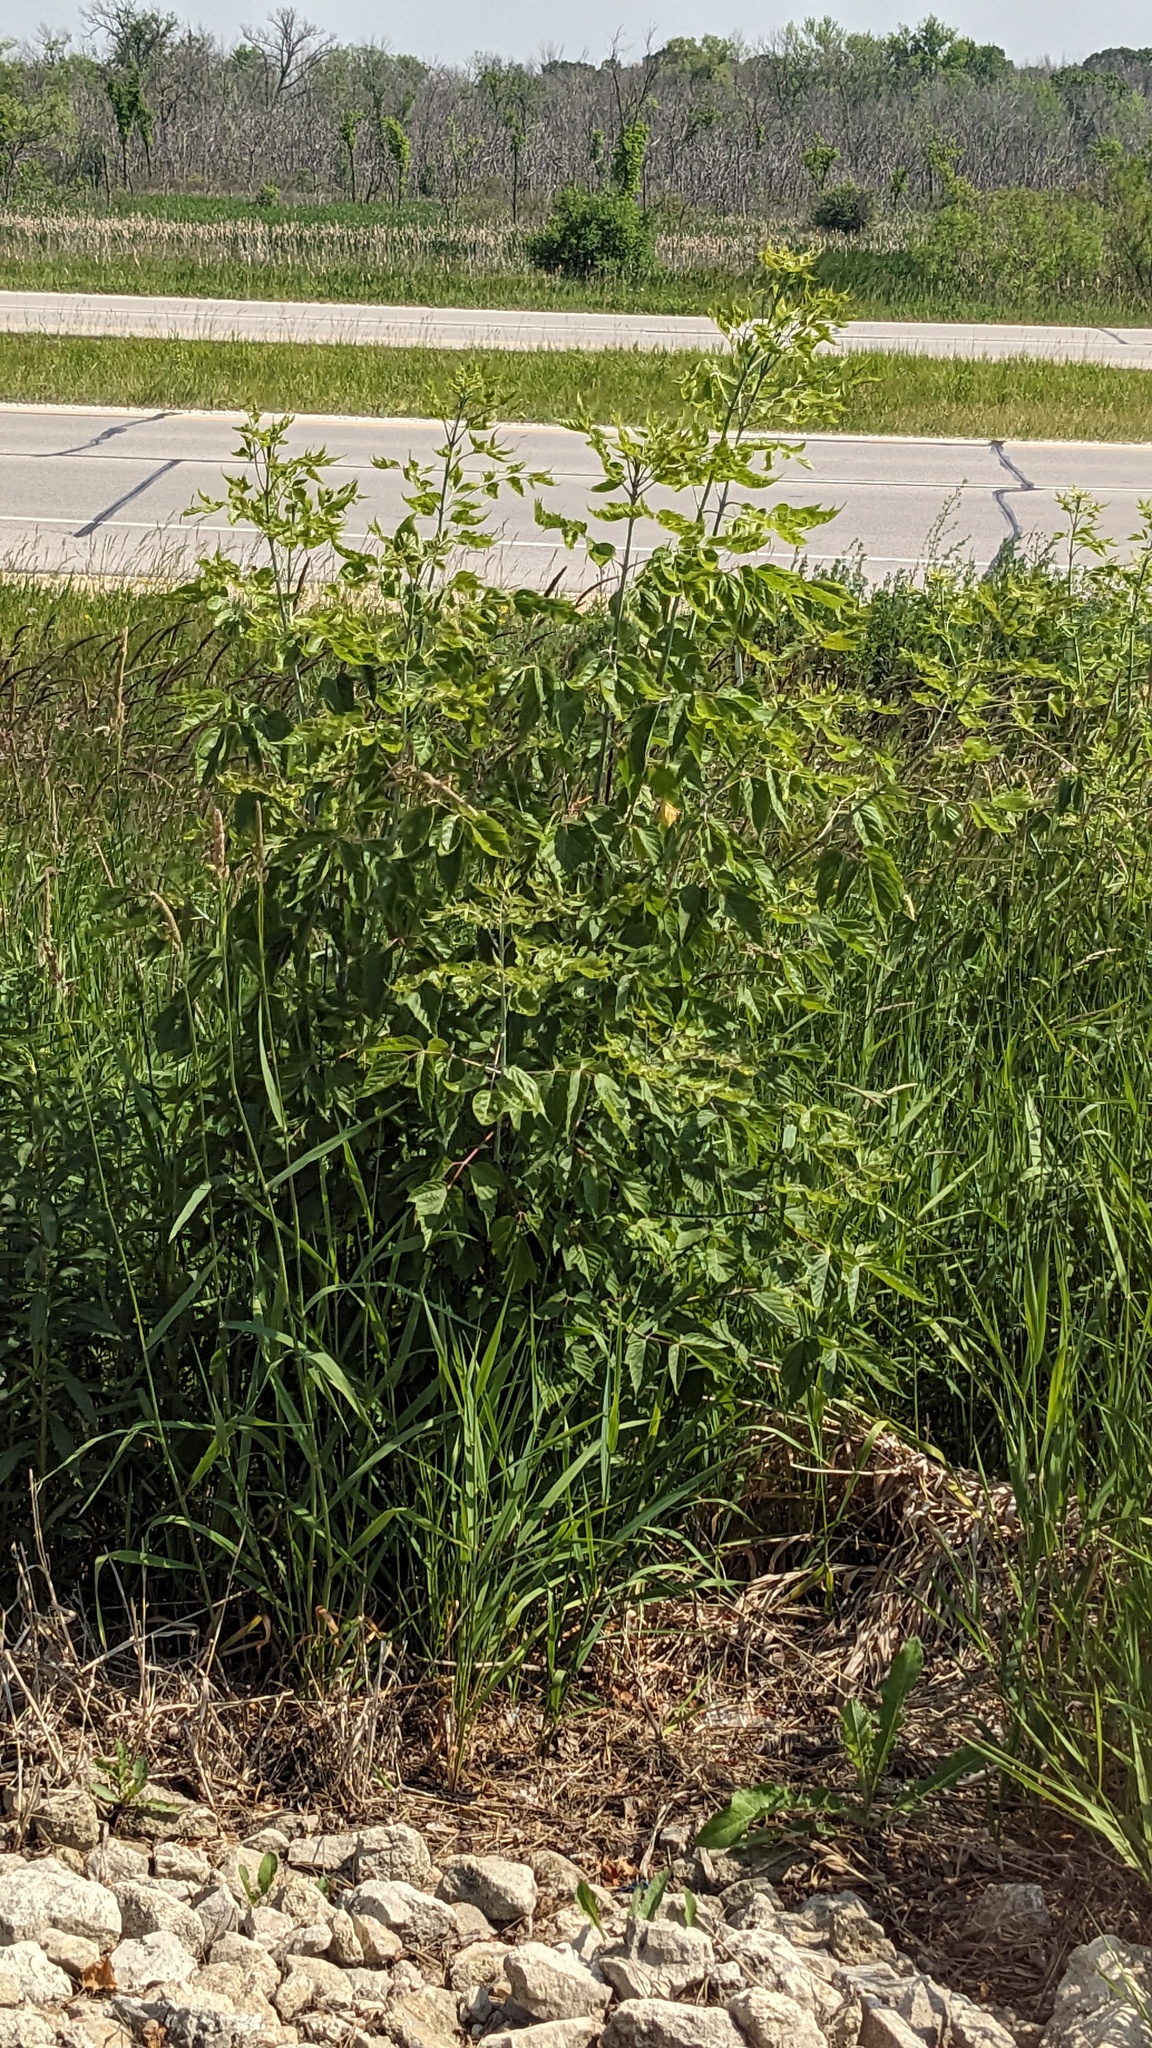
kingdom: Plantae
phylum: Tracheophyta
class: Magnoliopsida
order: Sapindales
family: Sapindaceae
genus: Acer
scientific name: Acer negundo
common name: Ashleaf maple
